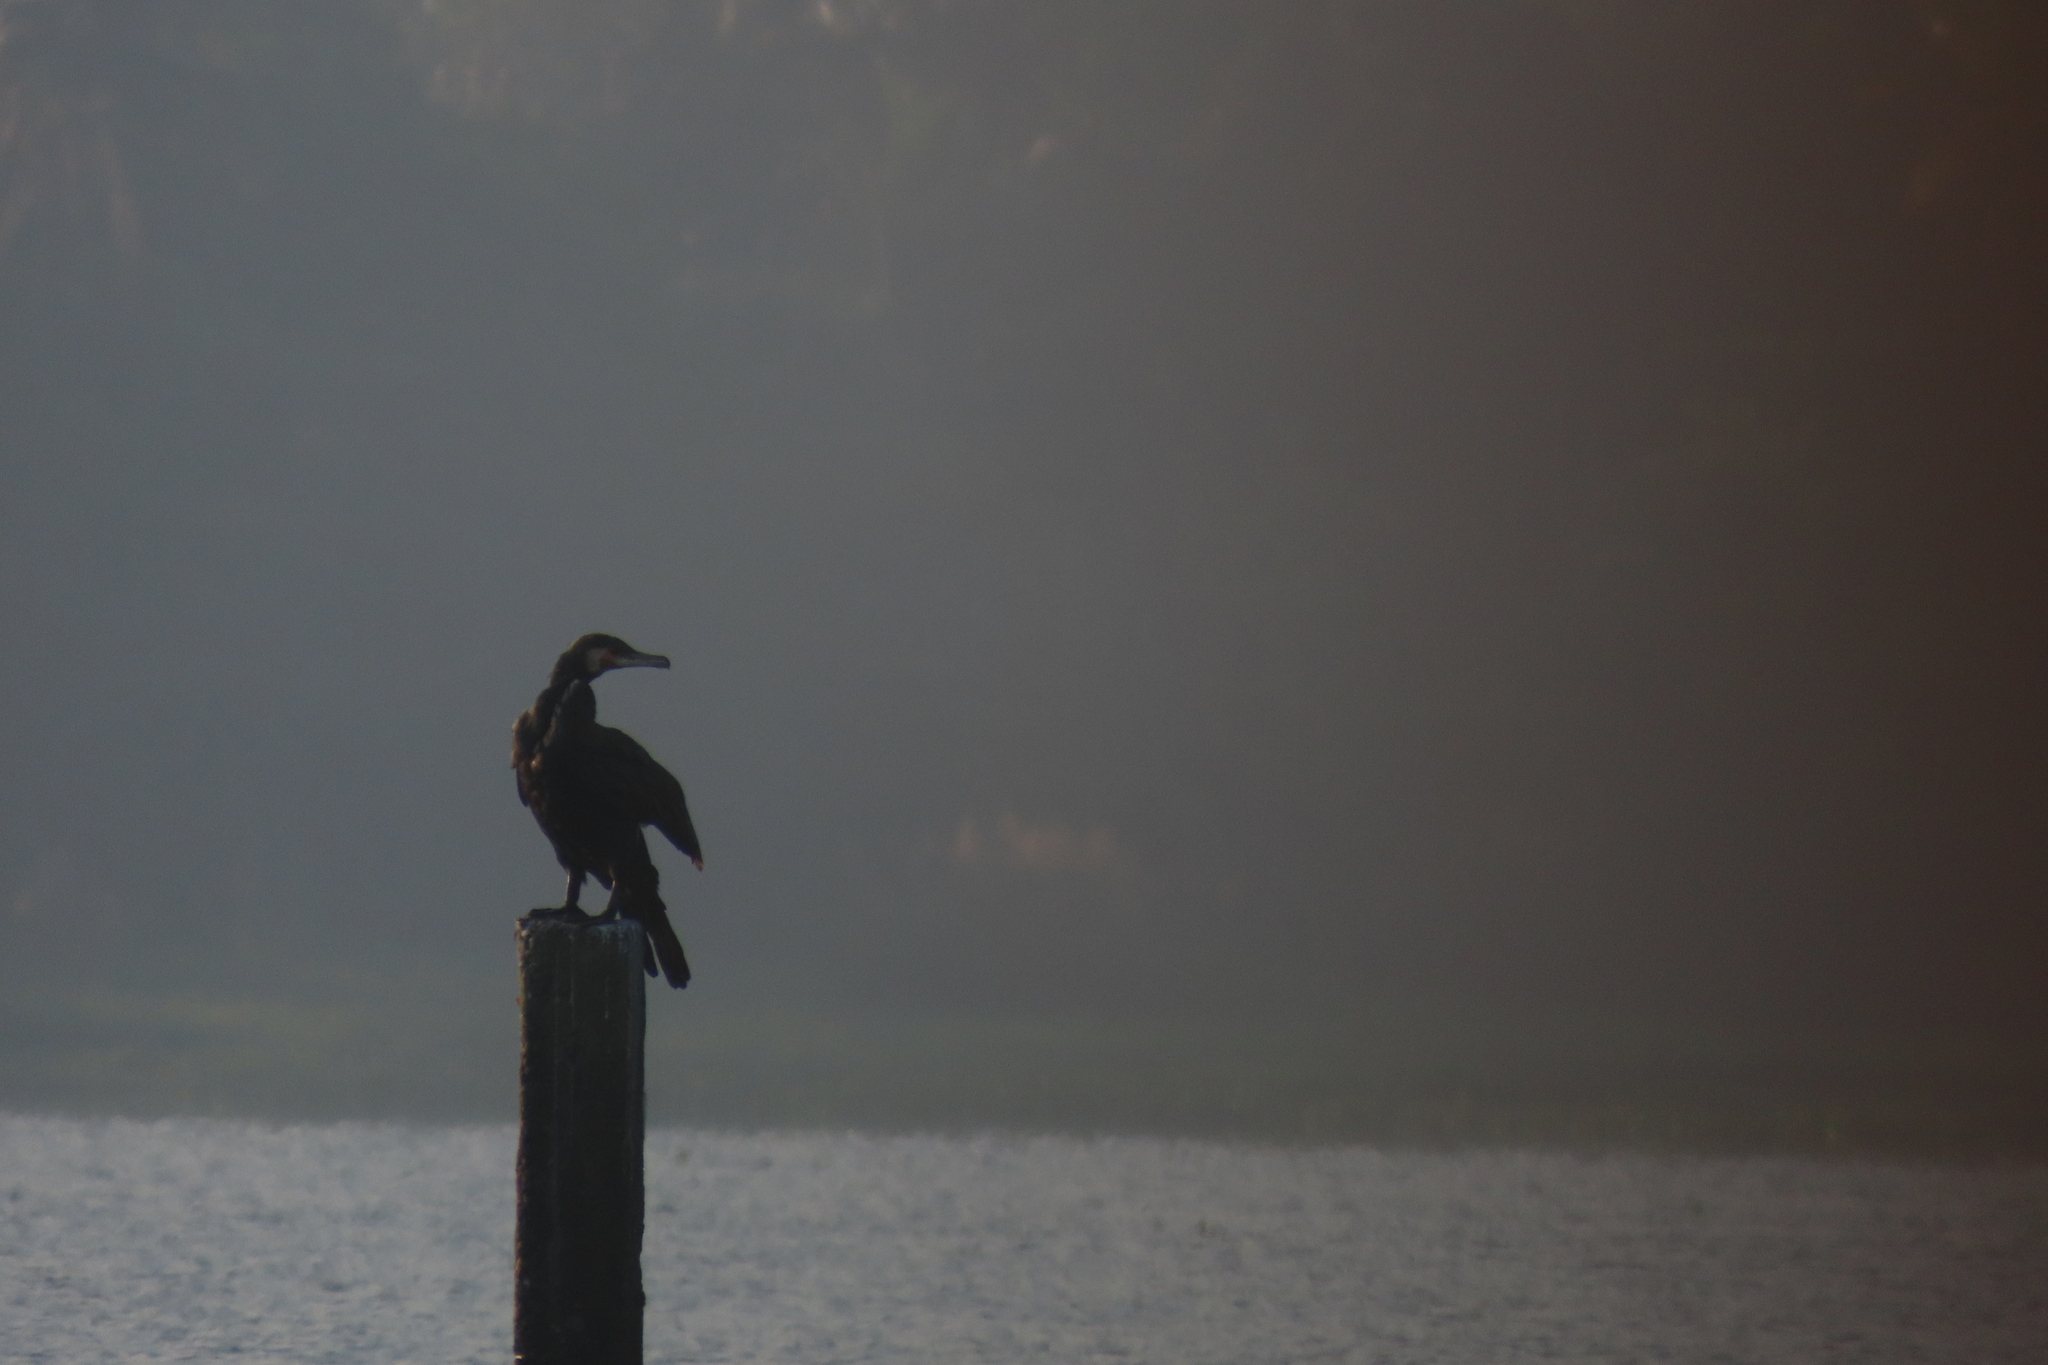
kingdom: Animalia
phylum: Chordata
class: Aves
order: Suliformes
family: Phalacrocoracidae
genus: Phalacrocorax
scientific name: Phalacrocorax carbo
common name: Great cormorant
